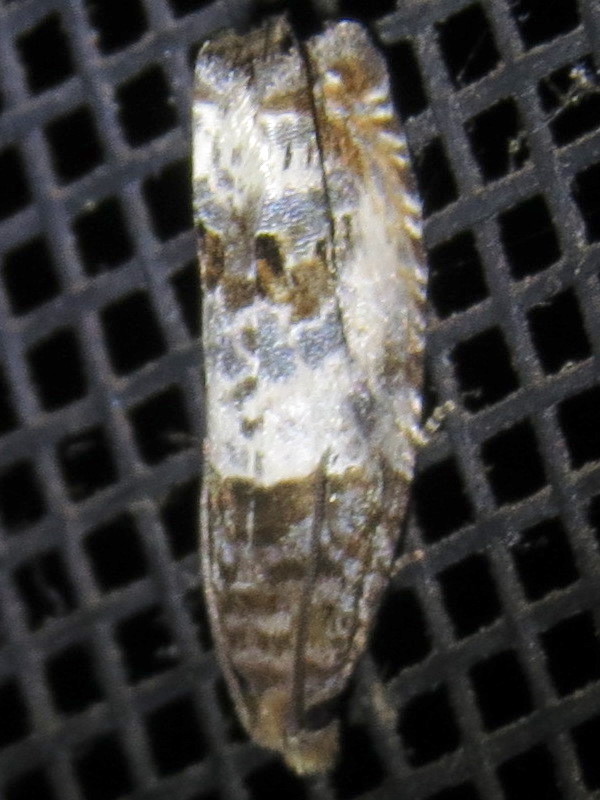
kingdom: Animalia
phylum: Arthropoda
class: Insecta
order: Lepidoptera
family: Tortricidae
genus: Notocelia
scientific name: Notocelia rosaecolana
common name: Common rose bell
